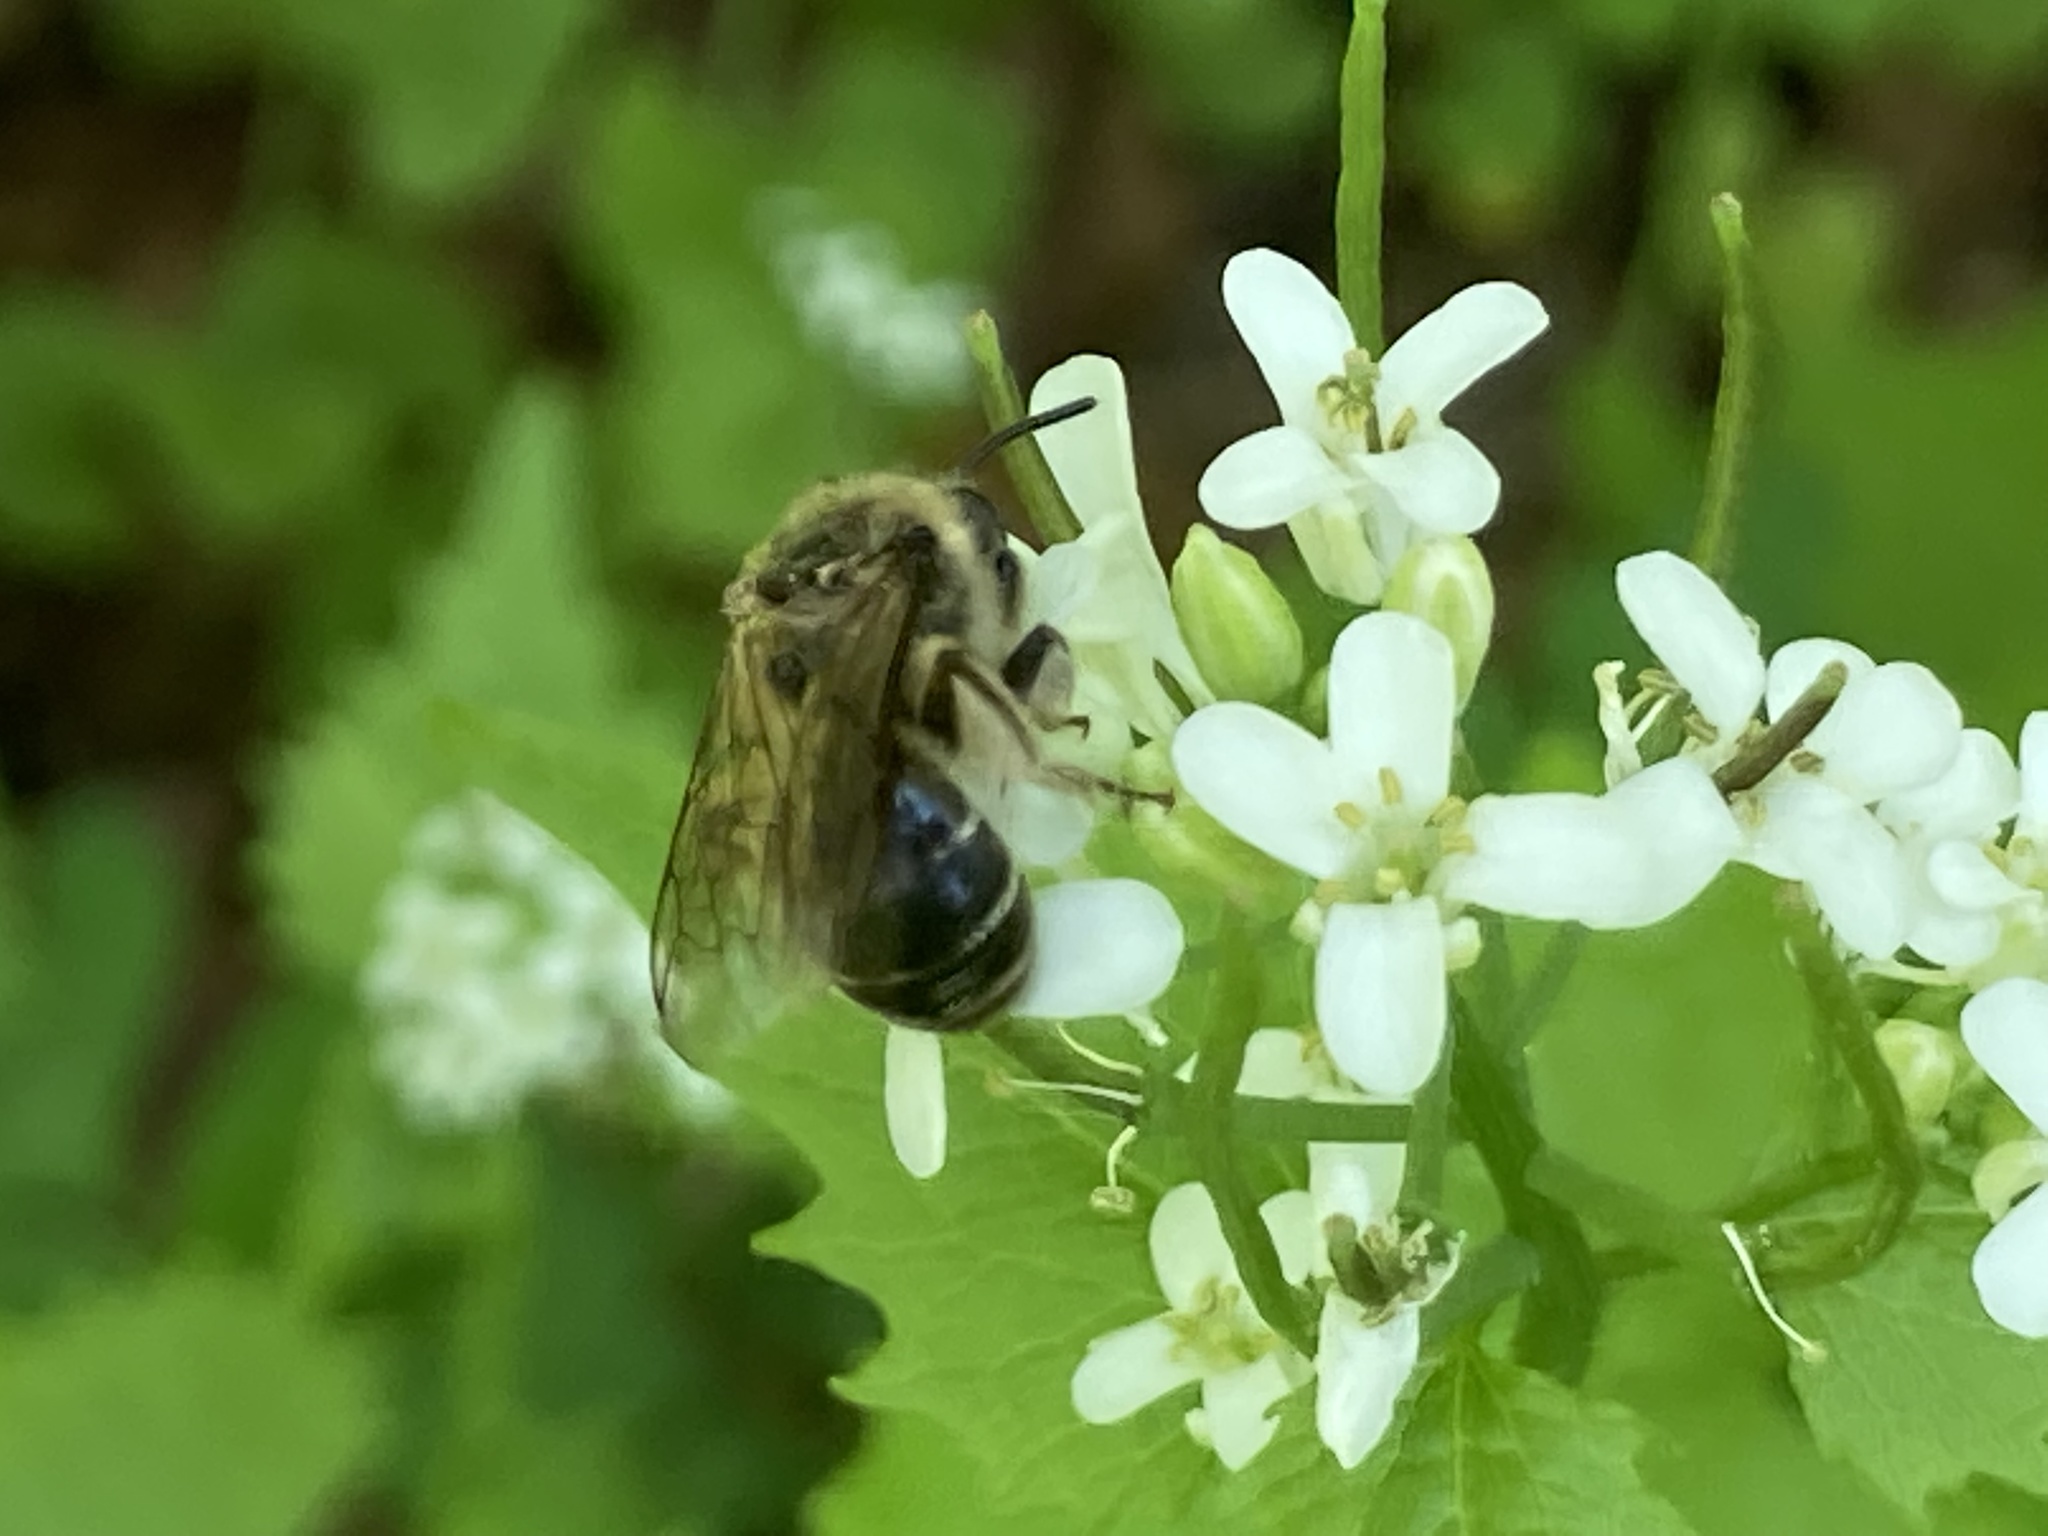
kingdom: Animalia
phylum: Arthropoda
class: Insecta
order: Hymenoptera
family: Colletidae
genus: Colletes
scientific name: Colletes inaequalis
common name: Unequal cellophane bee
